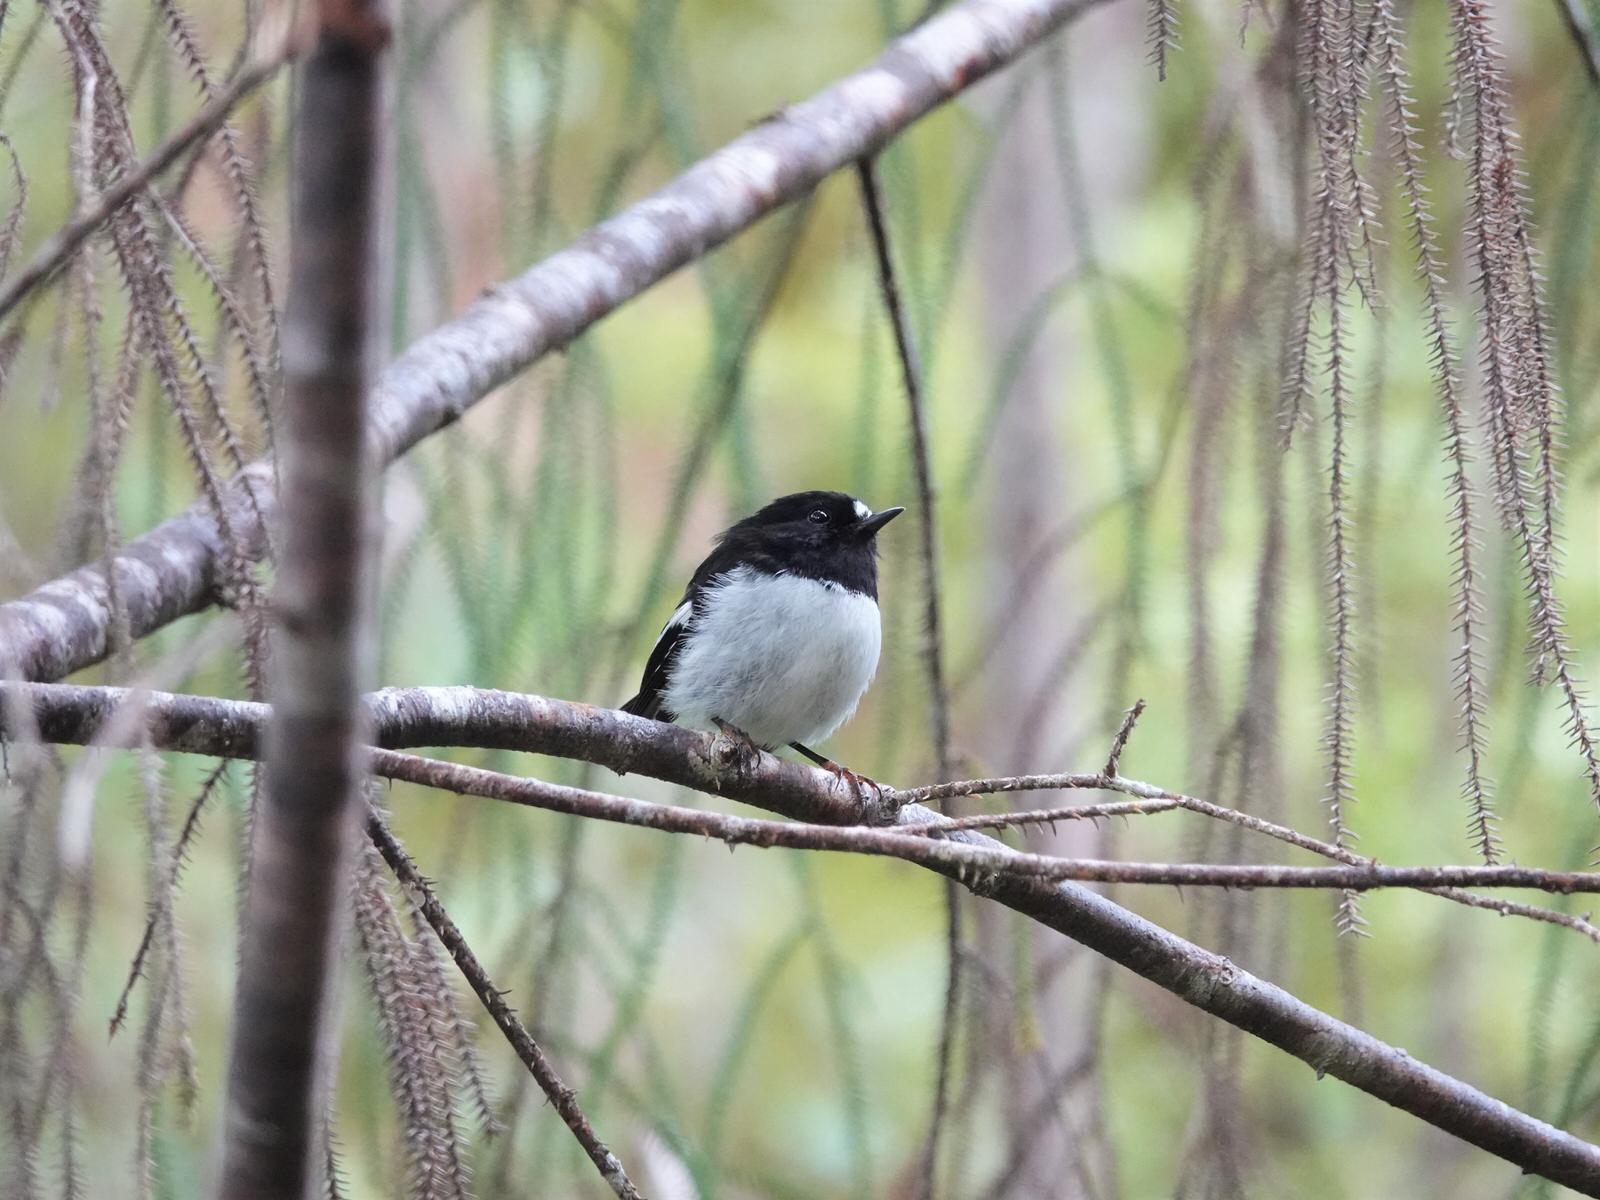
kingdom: Animalia
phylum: Chordata
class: Aves
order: Passeriformes
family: Petroicidae
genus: Petroica
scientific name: Petroica macrocephala
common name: Tomtit
